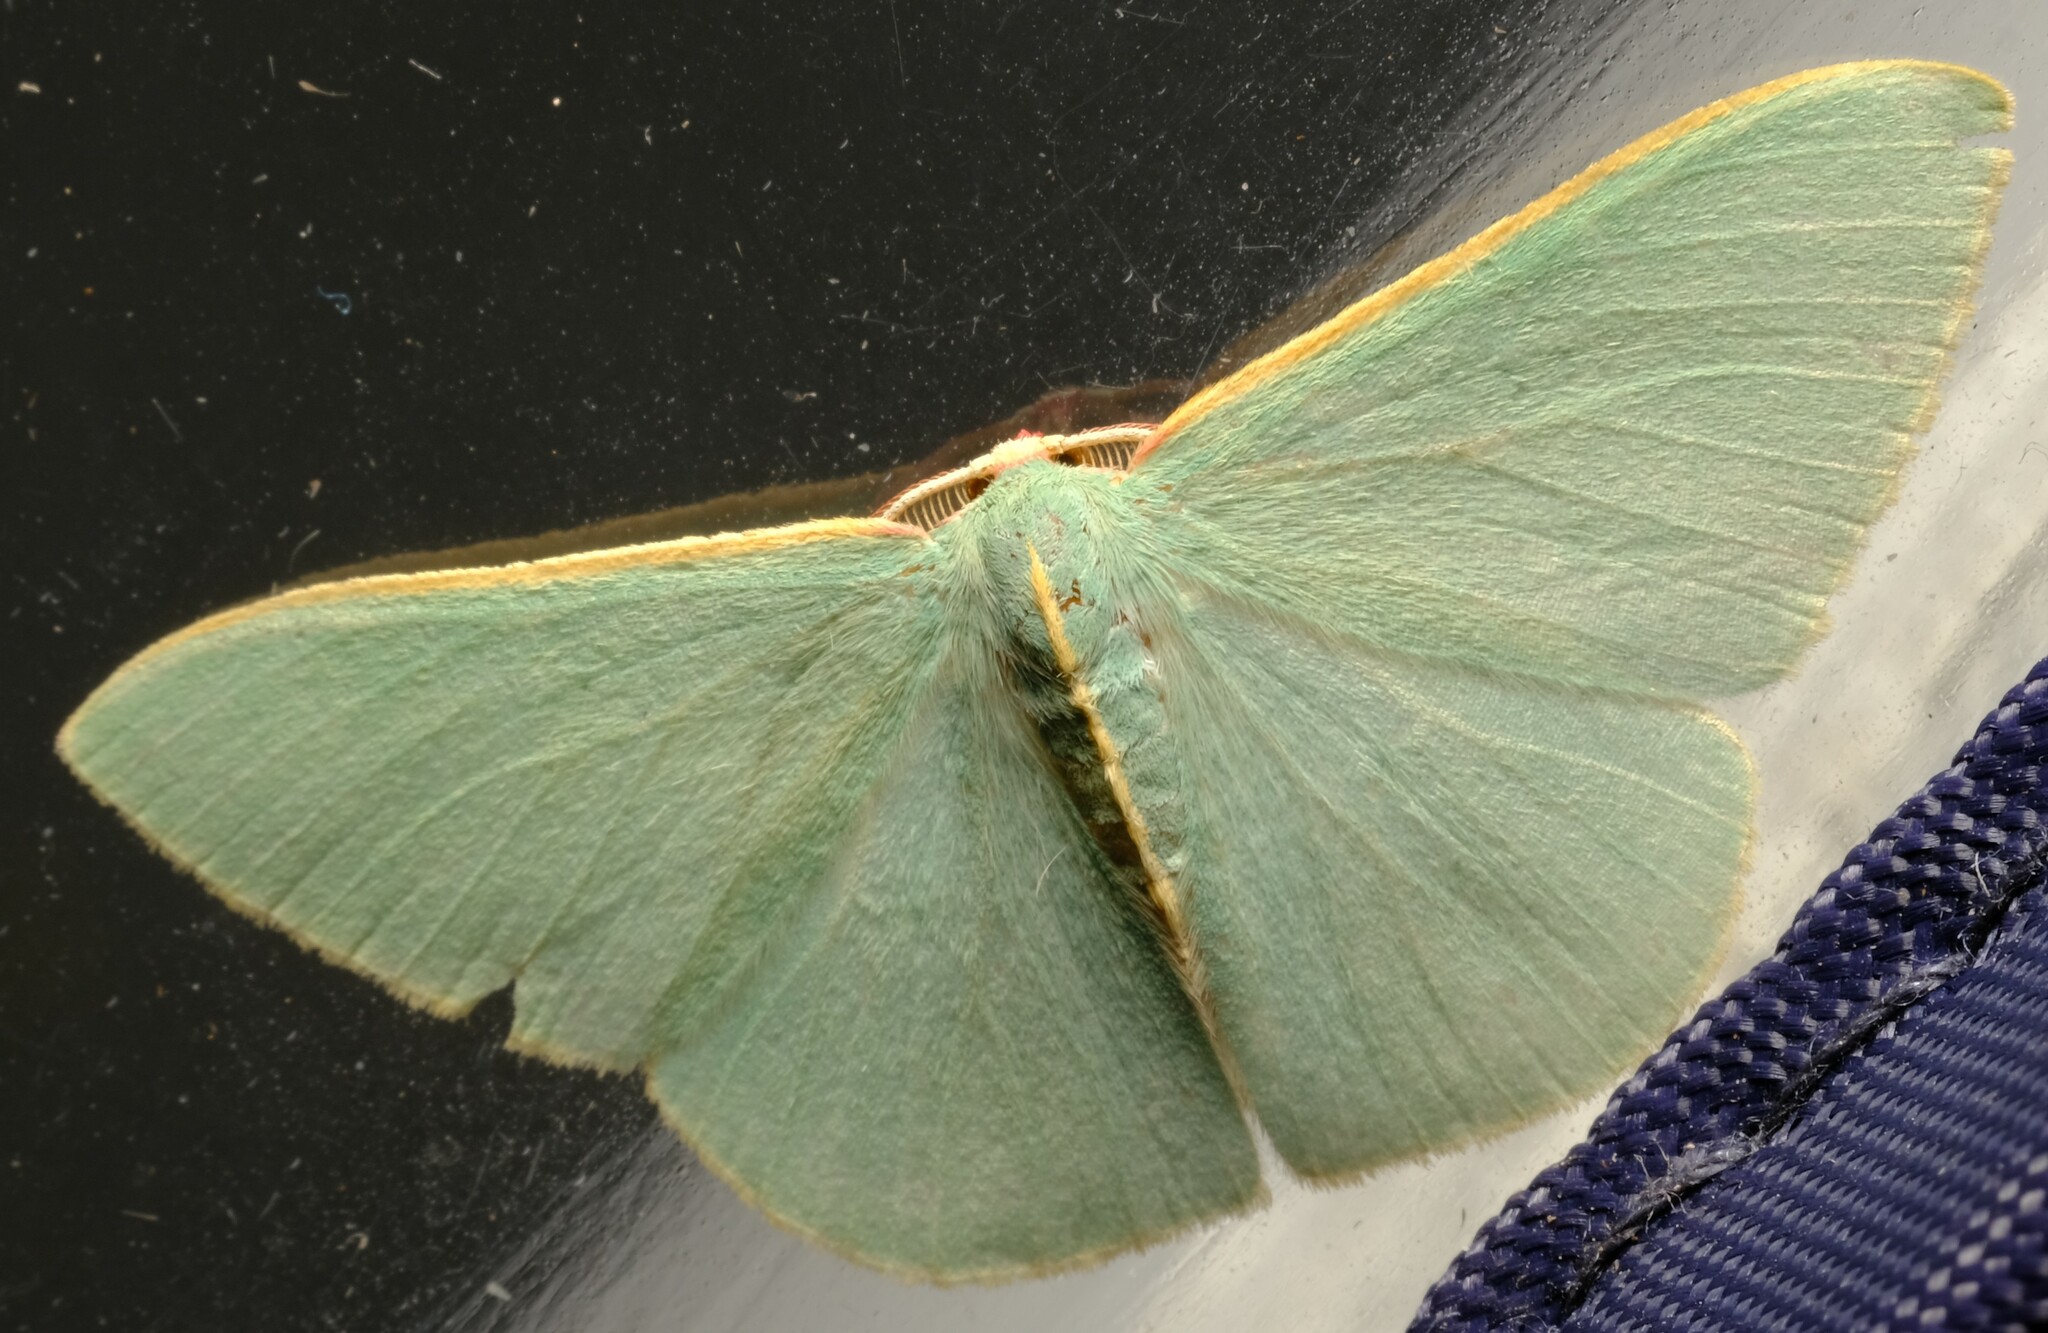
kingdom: Animalia
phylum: Arthropoda
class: Insecta
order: Lepidoptera
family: Geometridae
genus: Chlorocoma
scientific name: Chlorocoma assimilis
